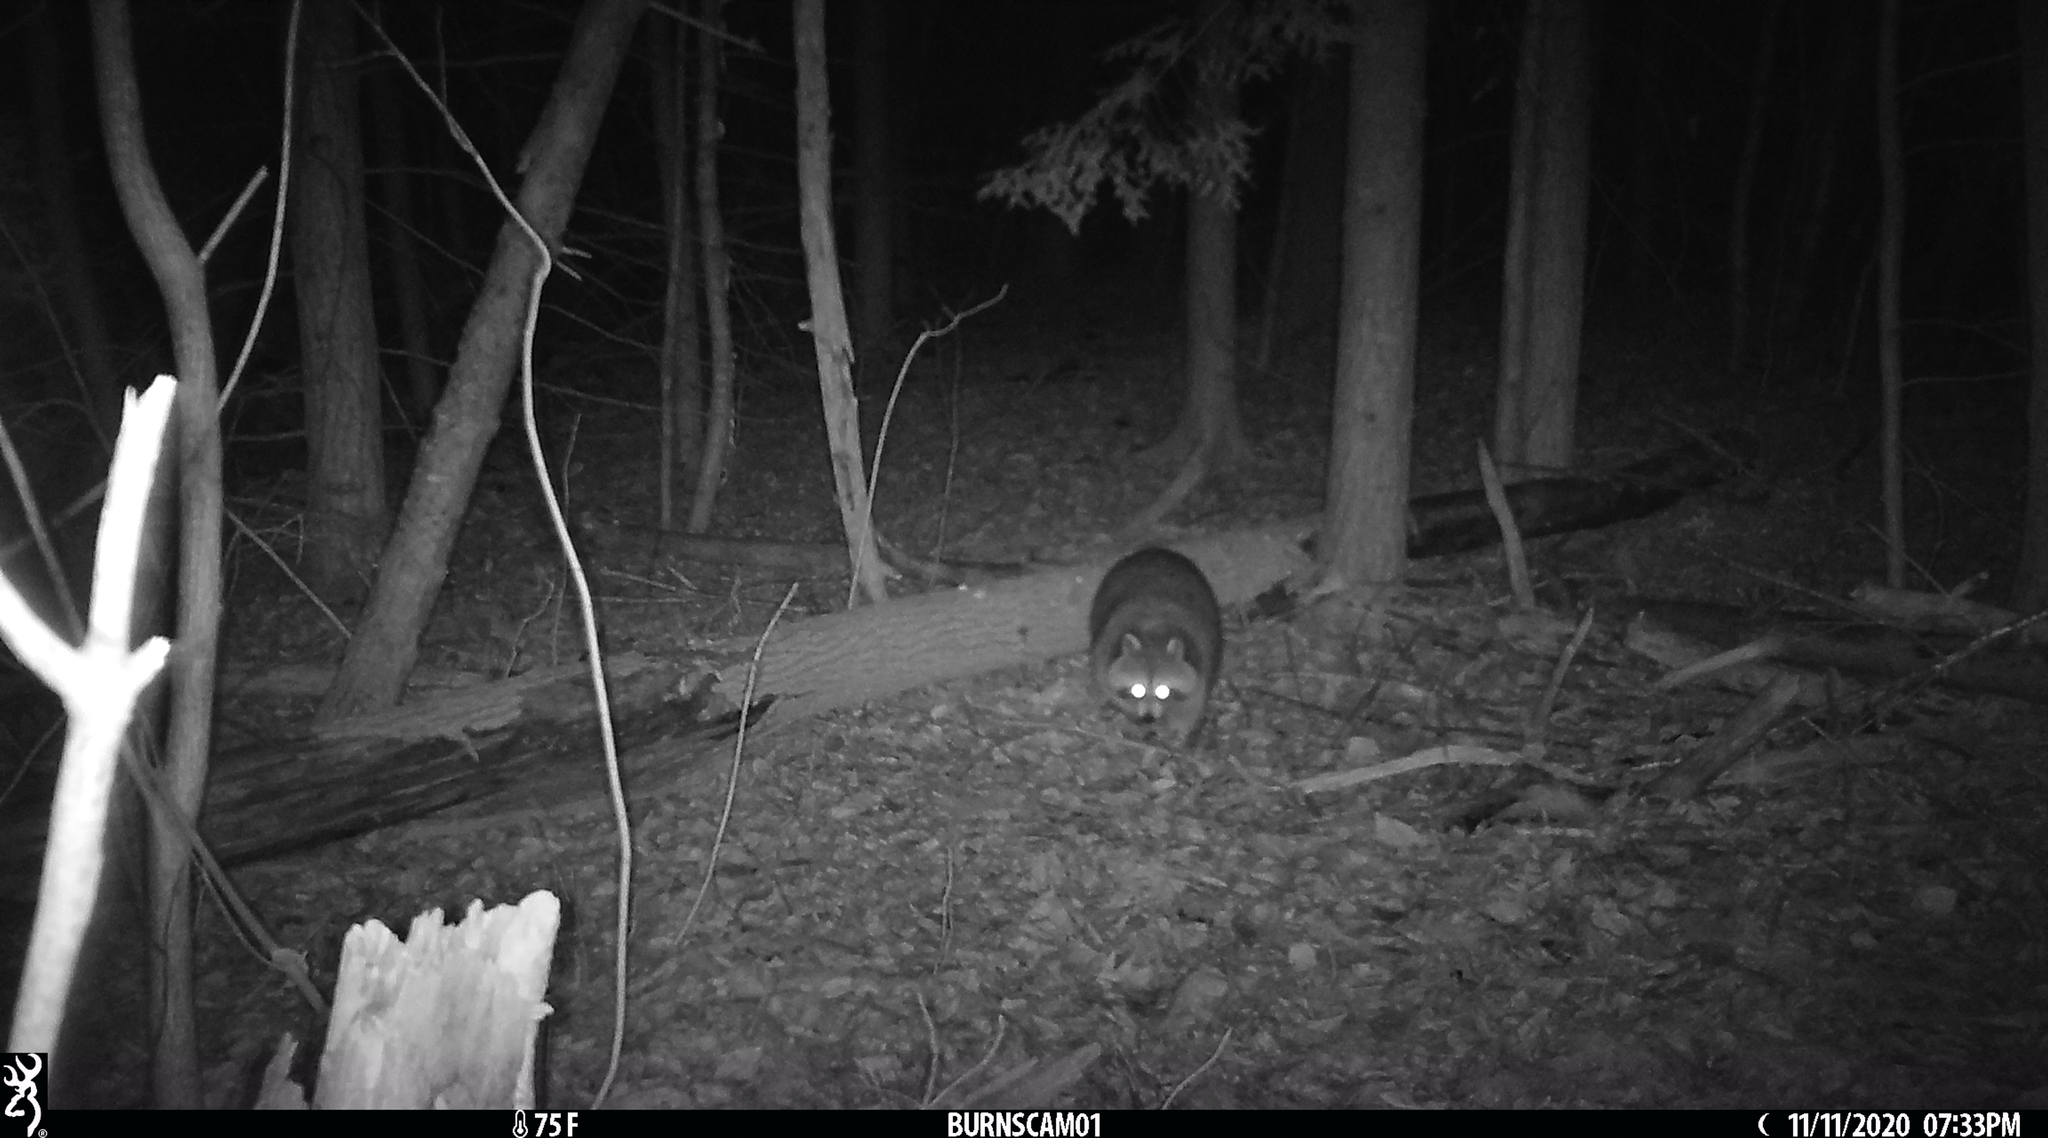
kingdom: Animalia
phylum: Chordata
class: Mammalia
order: Carnivora
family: Procyonidae
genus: Procyon
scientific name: Procyon lotor
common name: Raccoon
